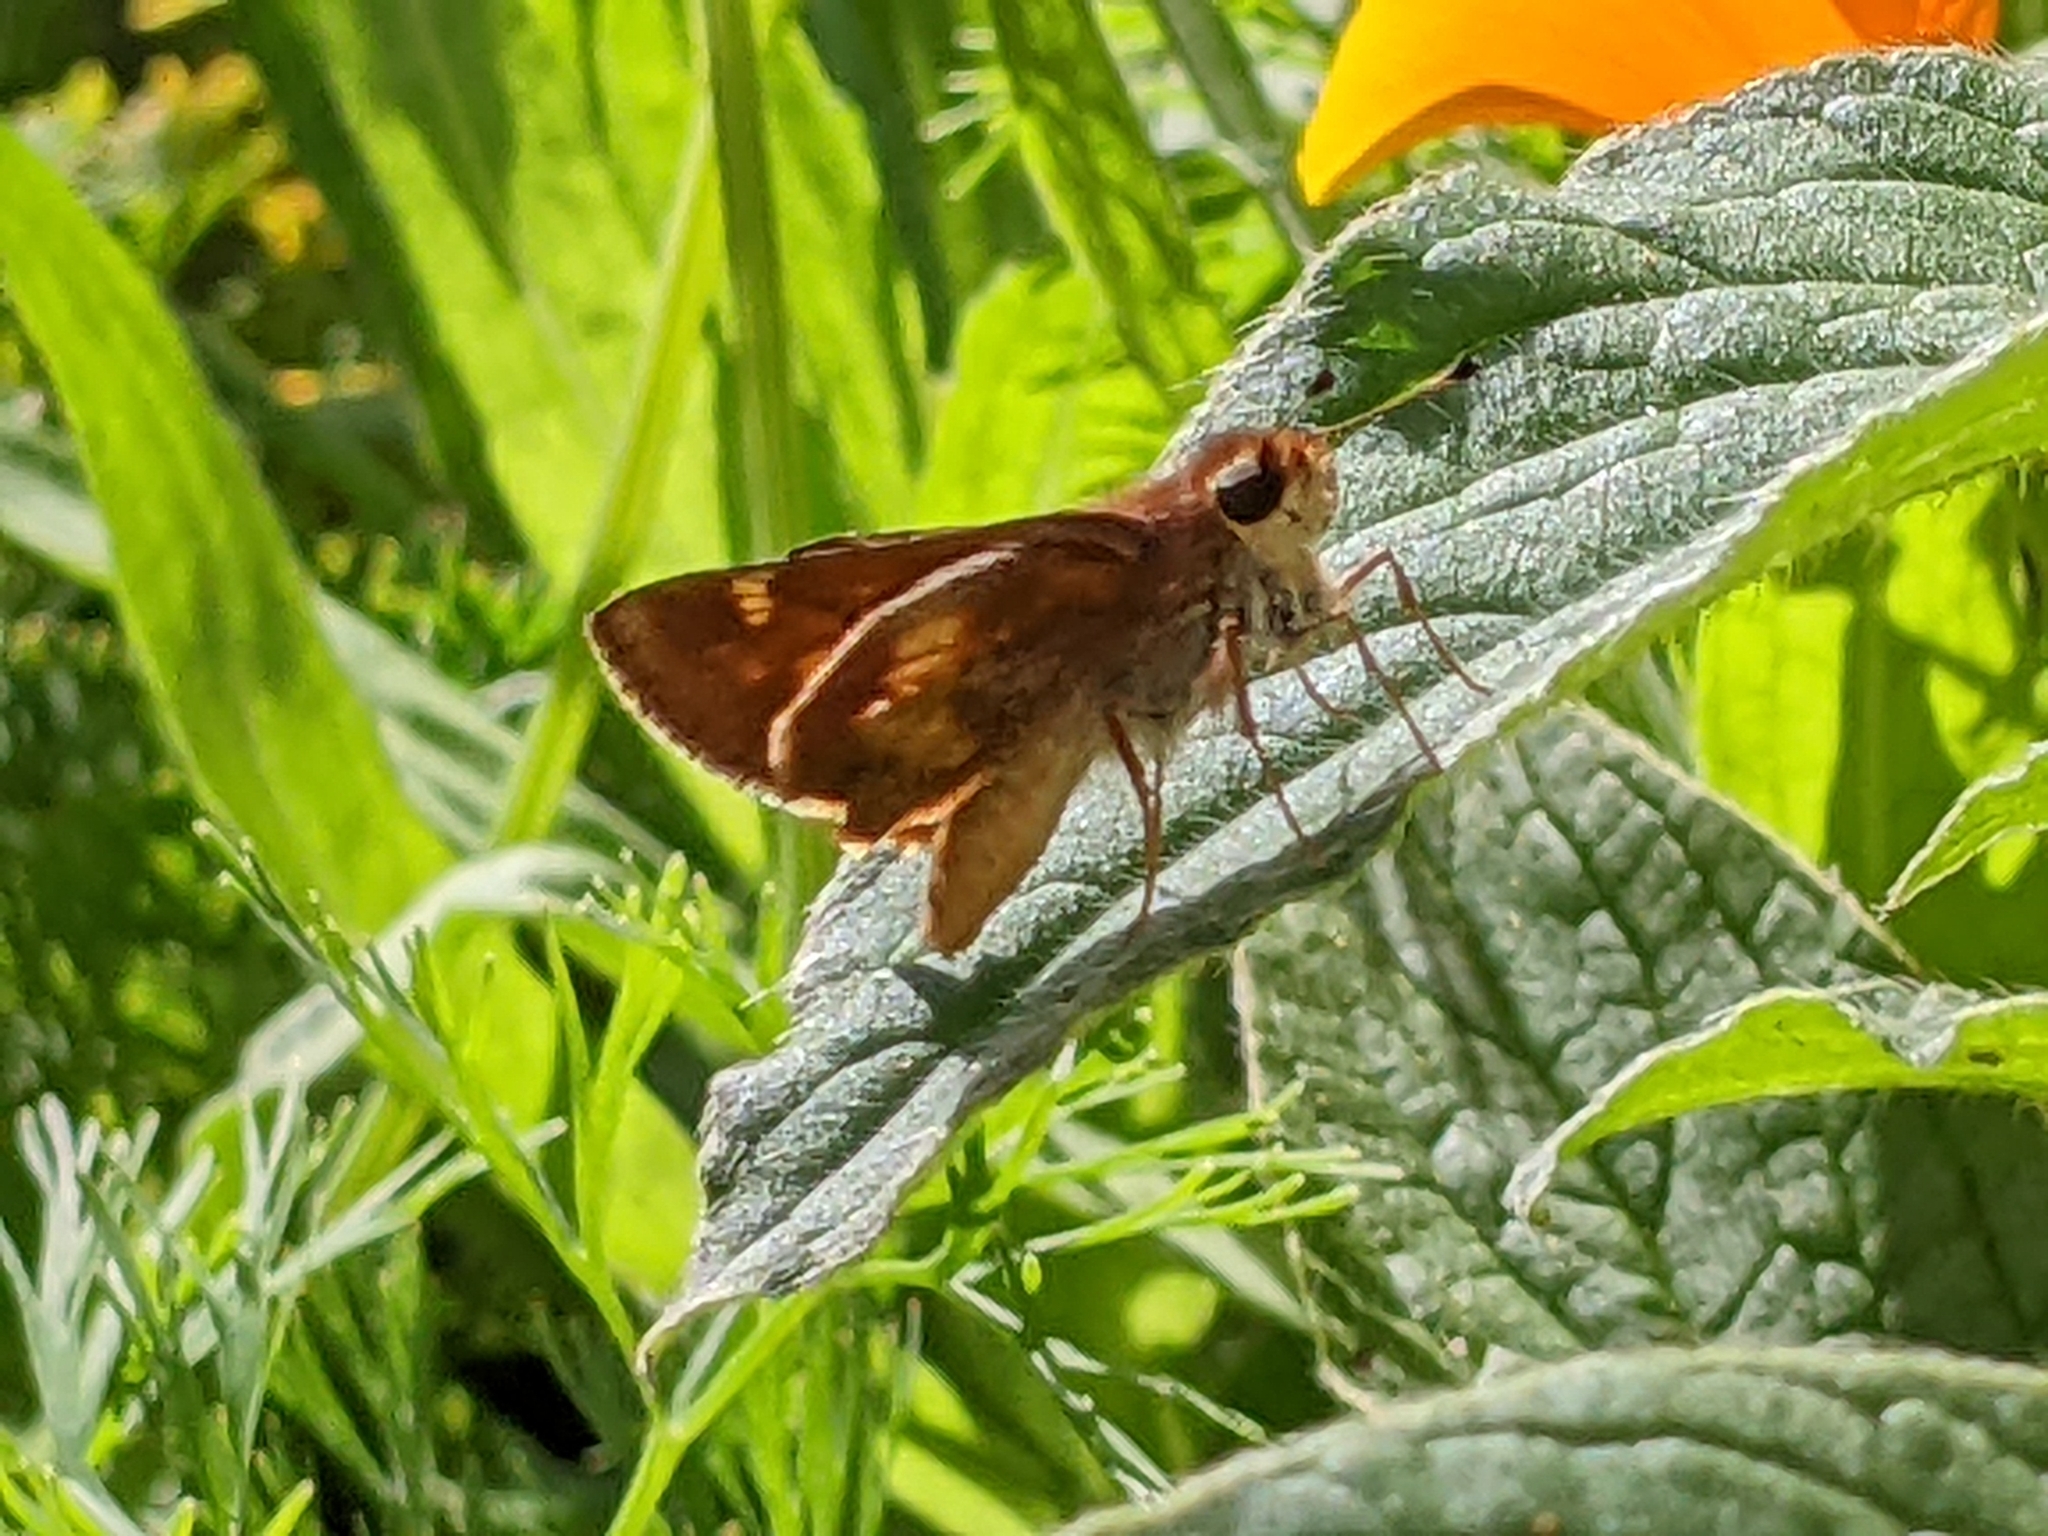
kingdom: Animalia
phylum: Arthropoda
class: Insecta
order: Lepidoptera
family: Hesperiidae
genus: Lon
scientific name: Lon melane
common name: Umber skipper
